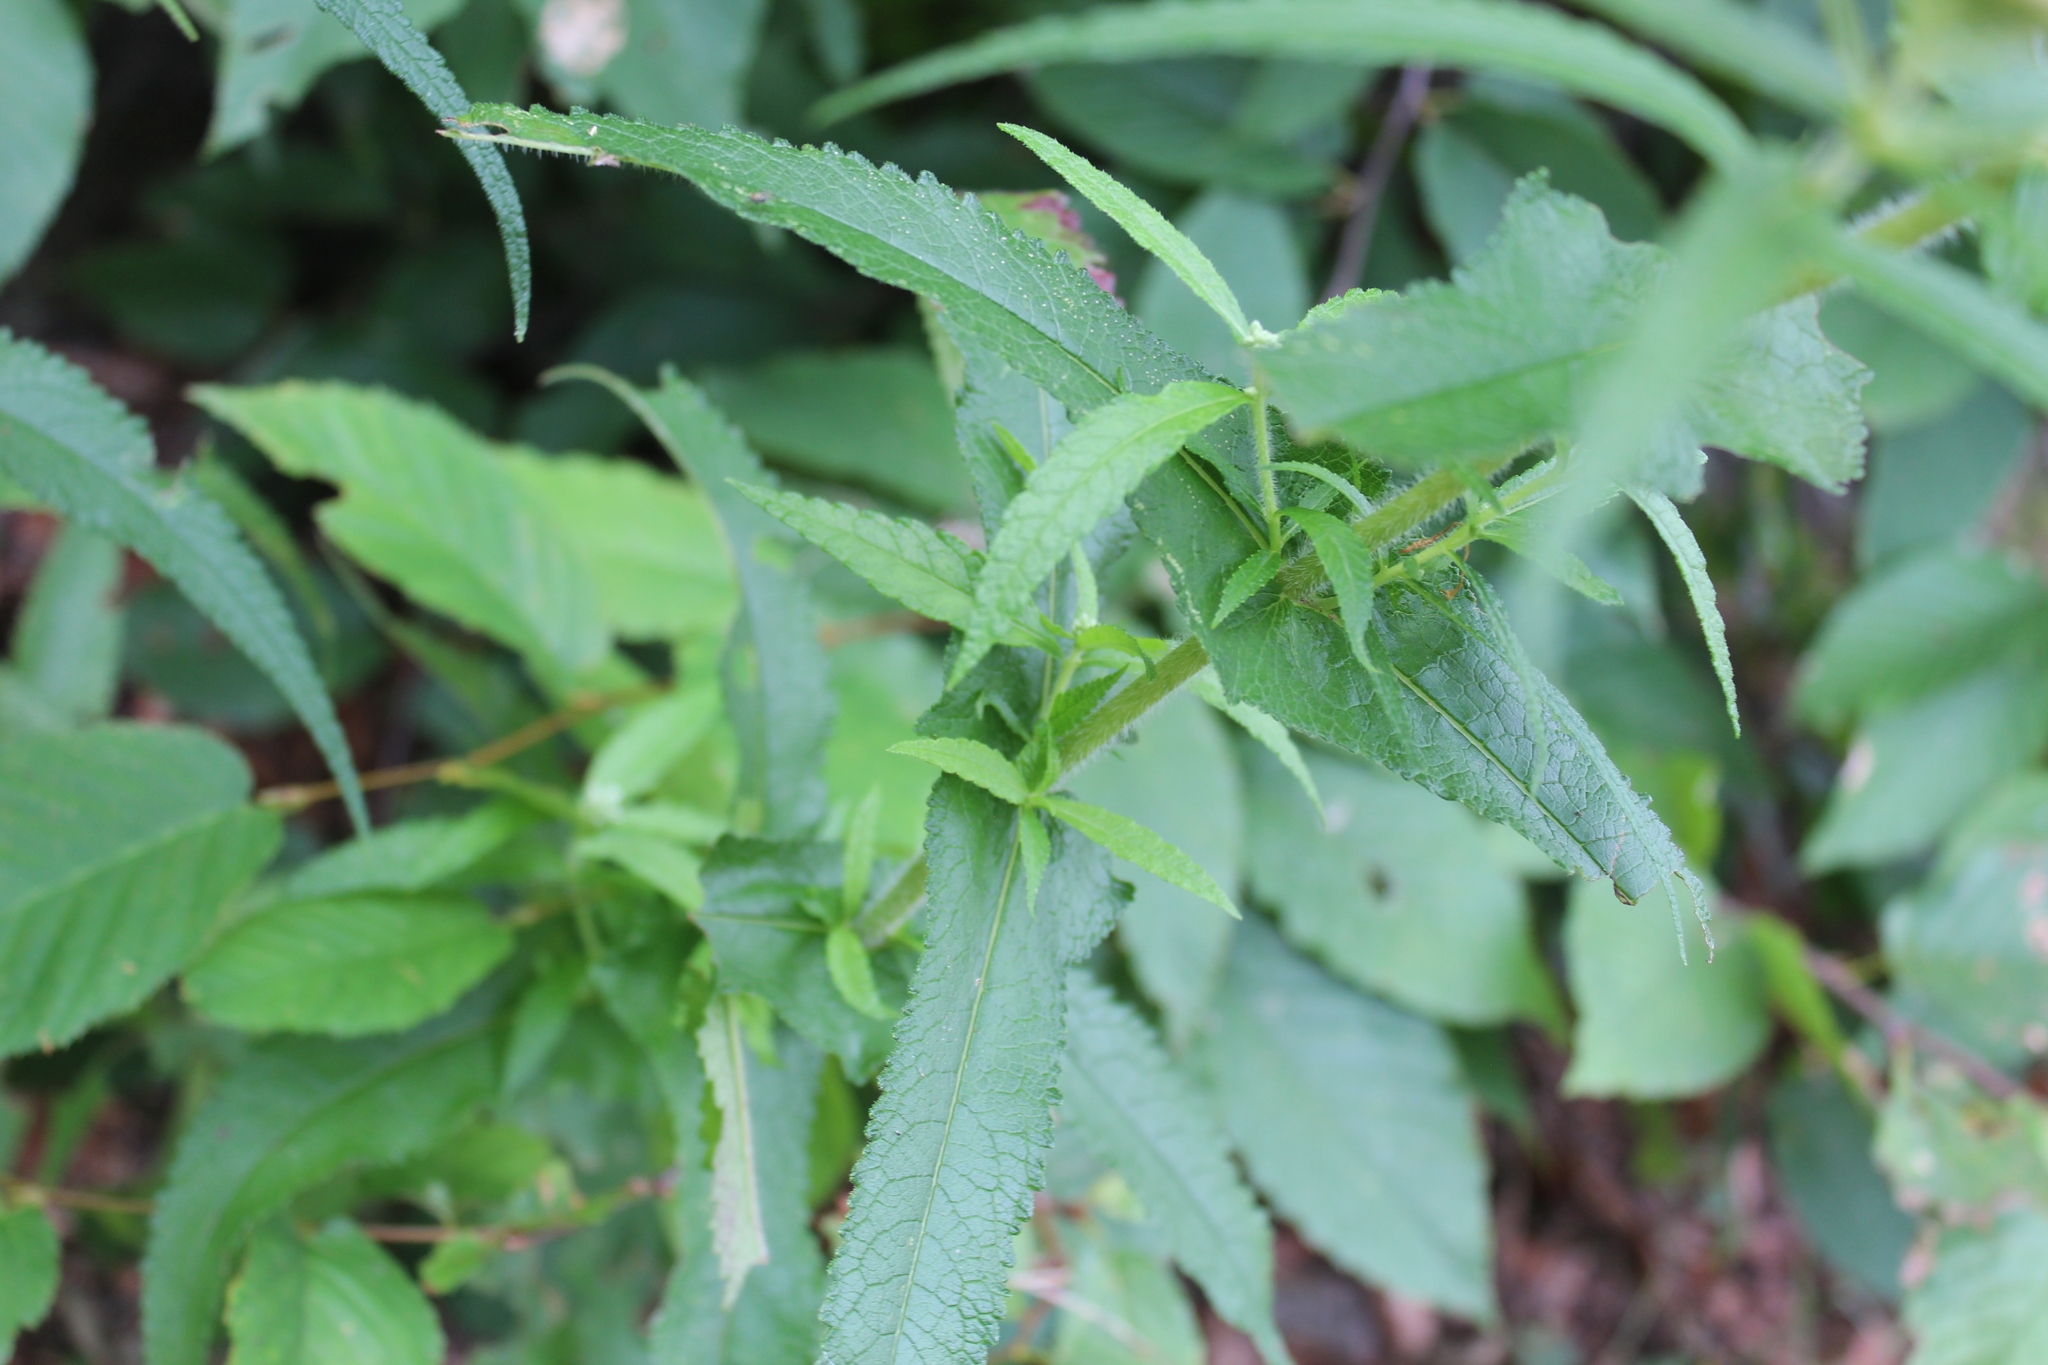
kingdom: Plantae
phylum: Tracheophyta
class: Magnoliopsida
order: Asterales
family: Asteraceae
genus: Eupatorium
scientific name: Eupatorium perfoliatum
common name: Boneset
